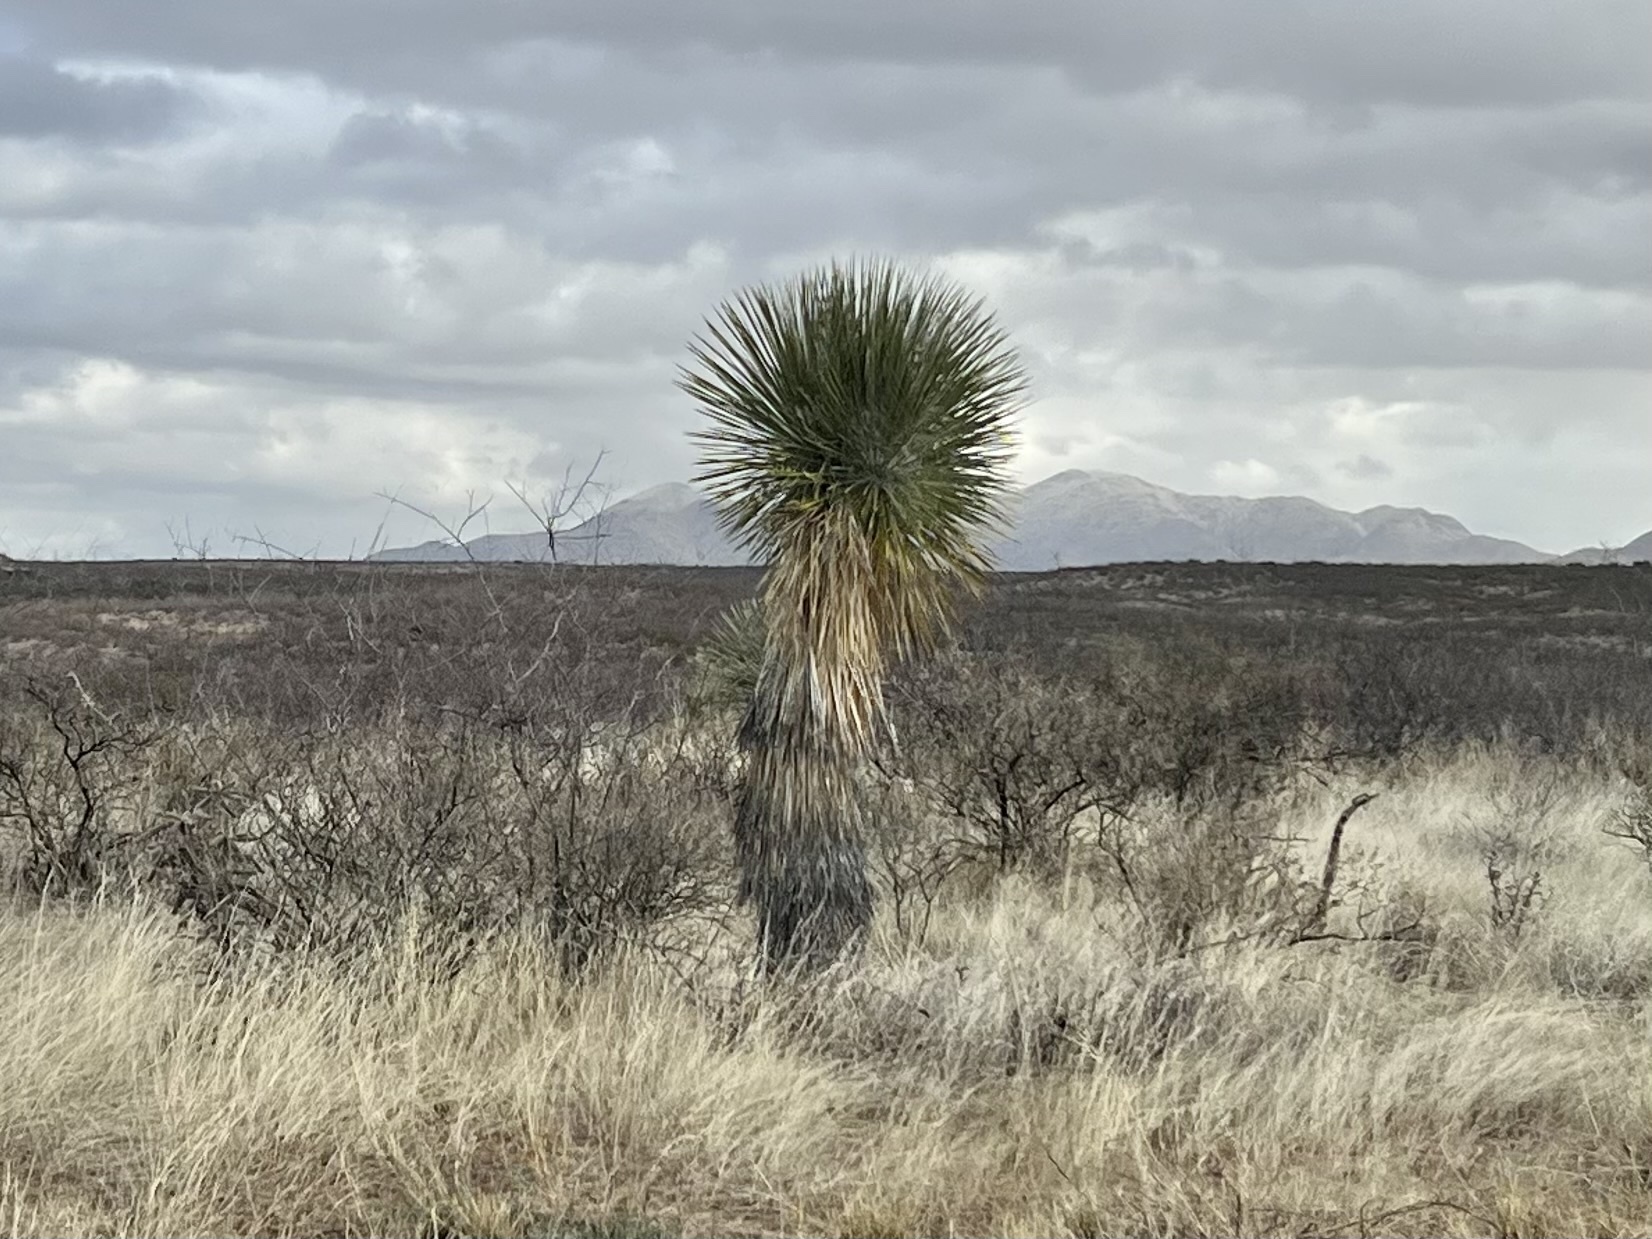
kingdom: Plantae
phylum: Tracheophyta
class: Liliopsida
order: Asparagales
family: Asparagaceae
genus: Yucca
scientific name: Yucca elata
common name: Palmella
